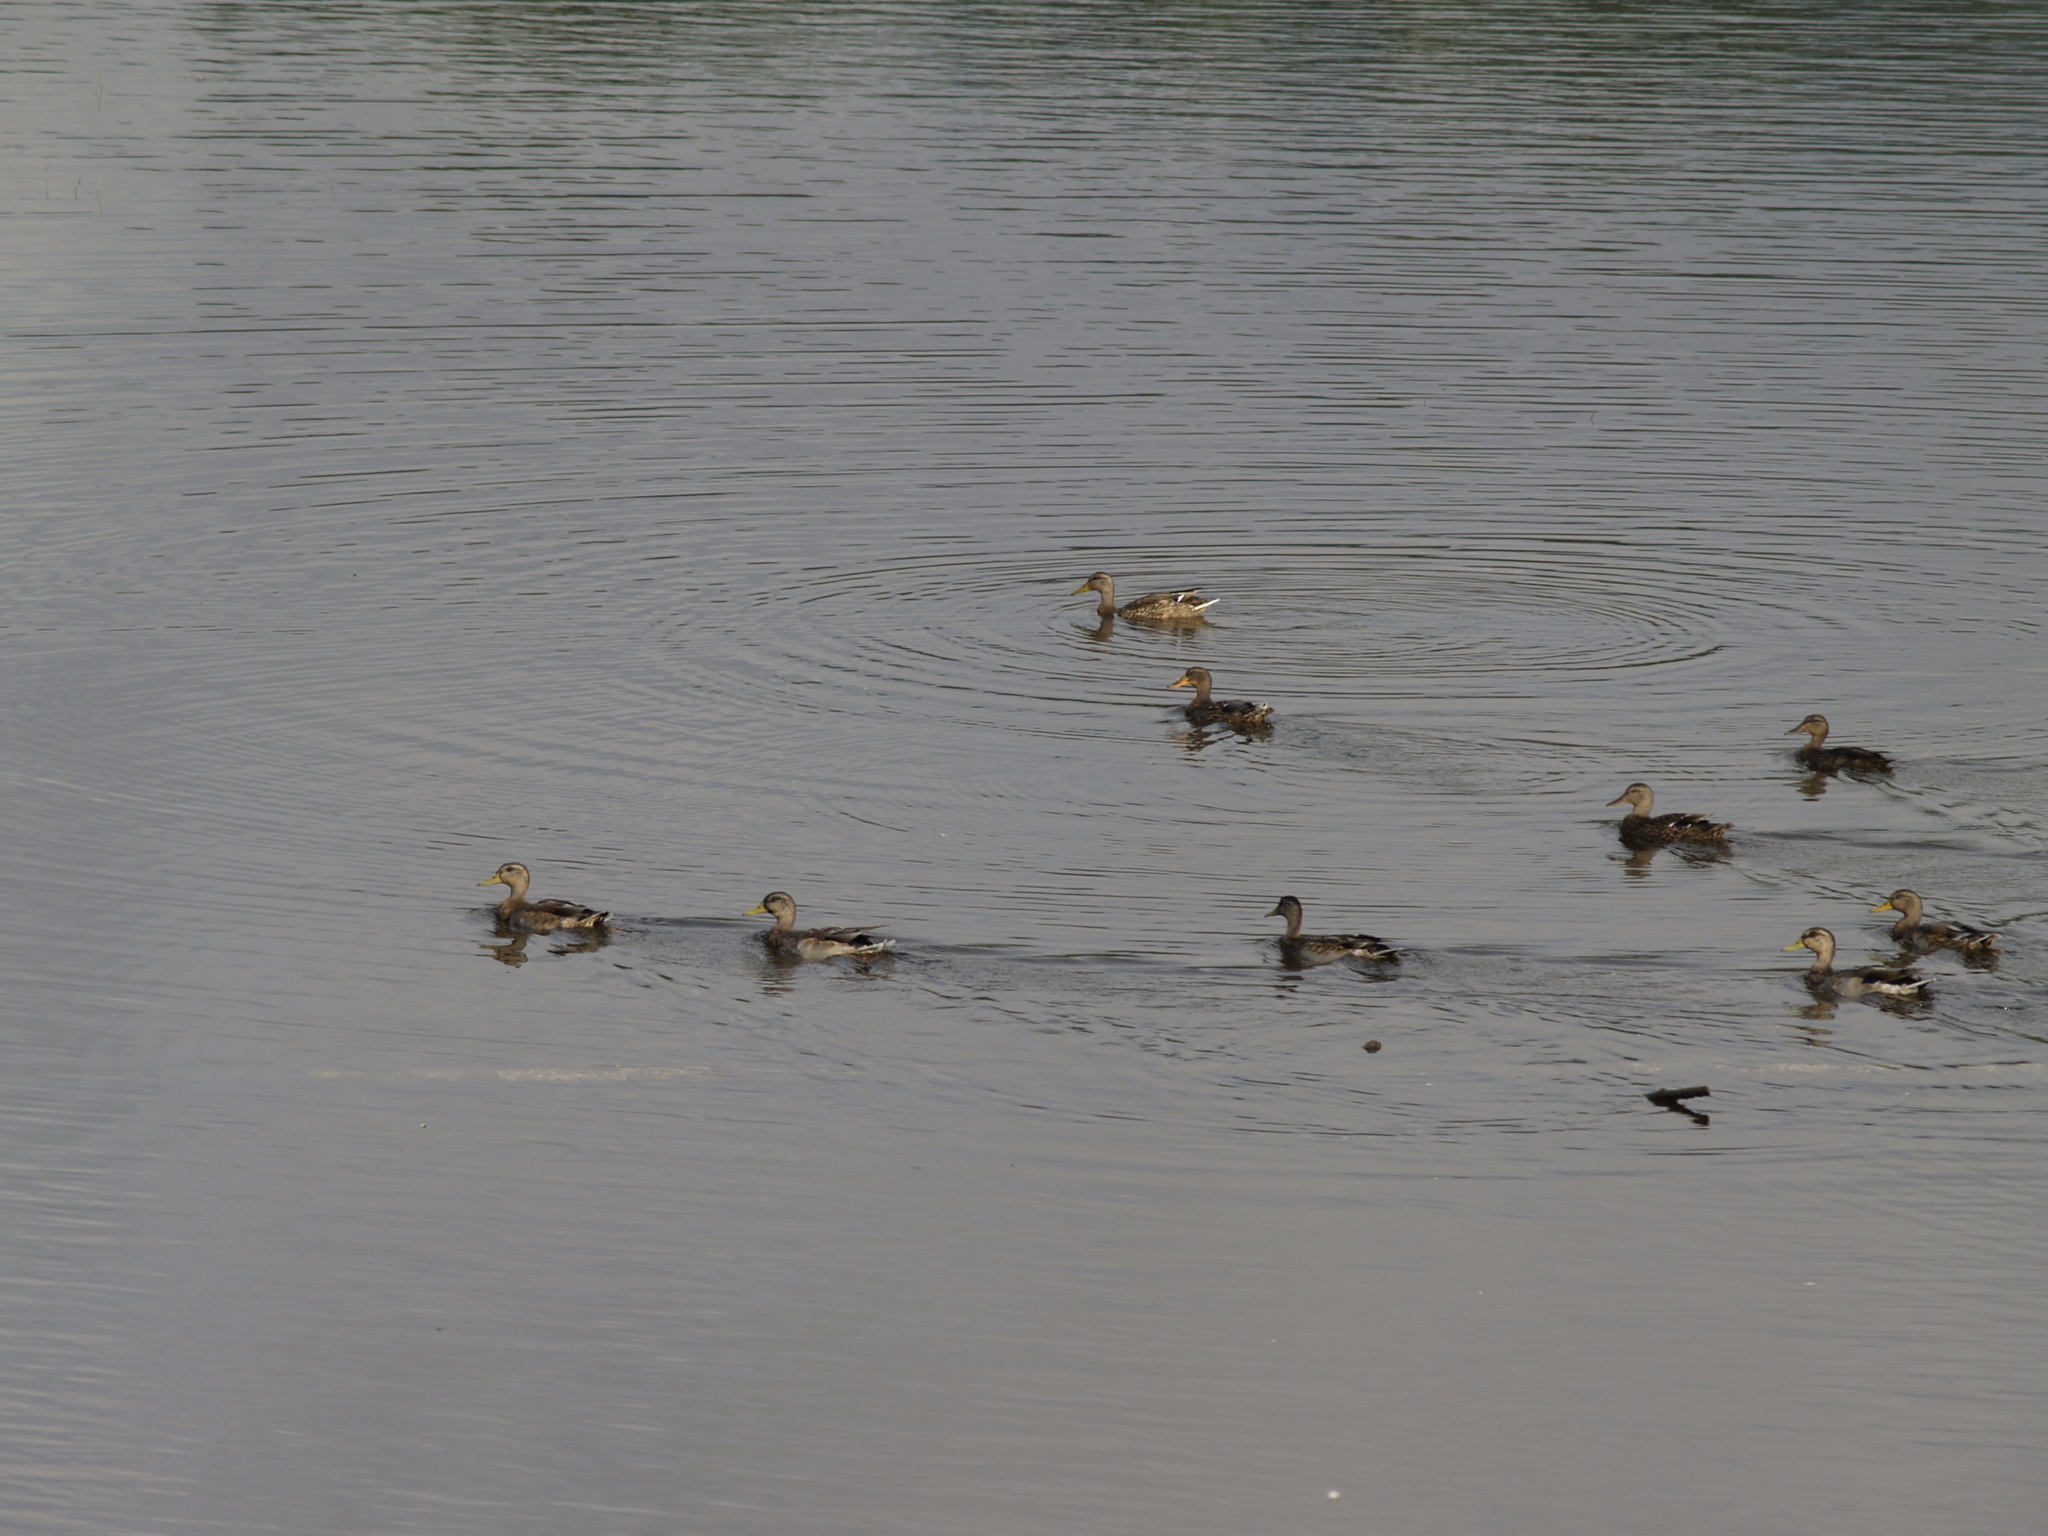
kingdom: Animalia
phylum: Chordata
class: Aves
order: Anseriformes
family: Anatidae
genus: Anas
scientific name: Anas platyrhynchos
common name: Mallard
